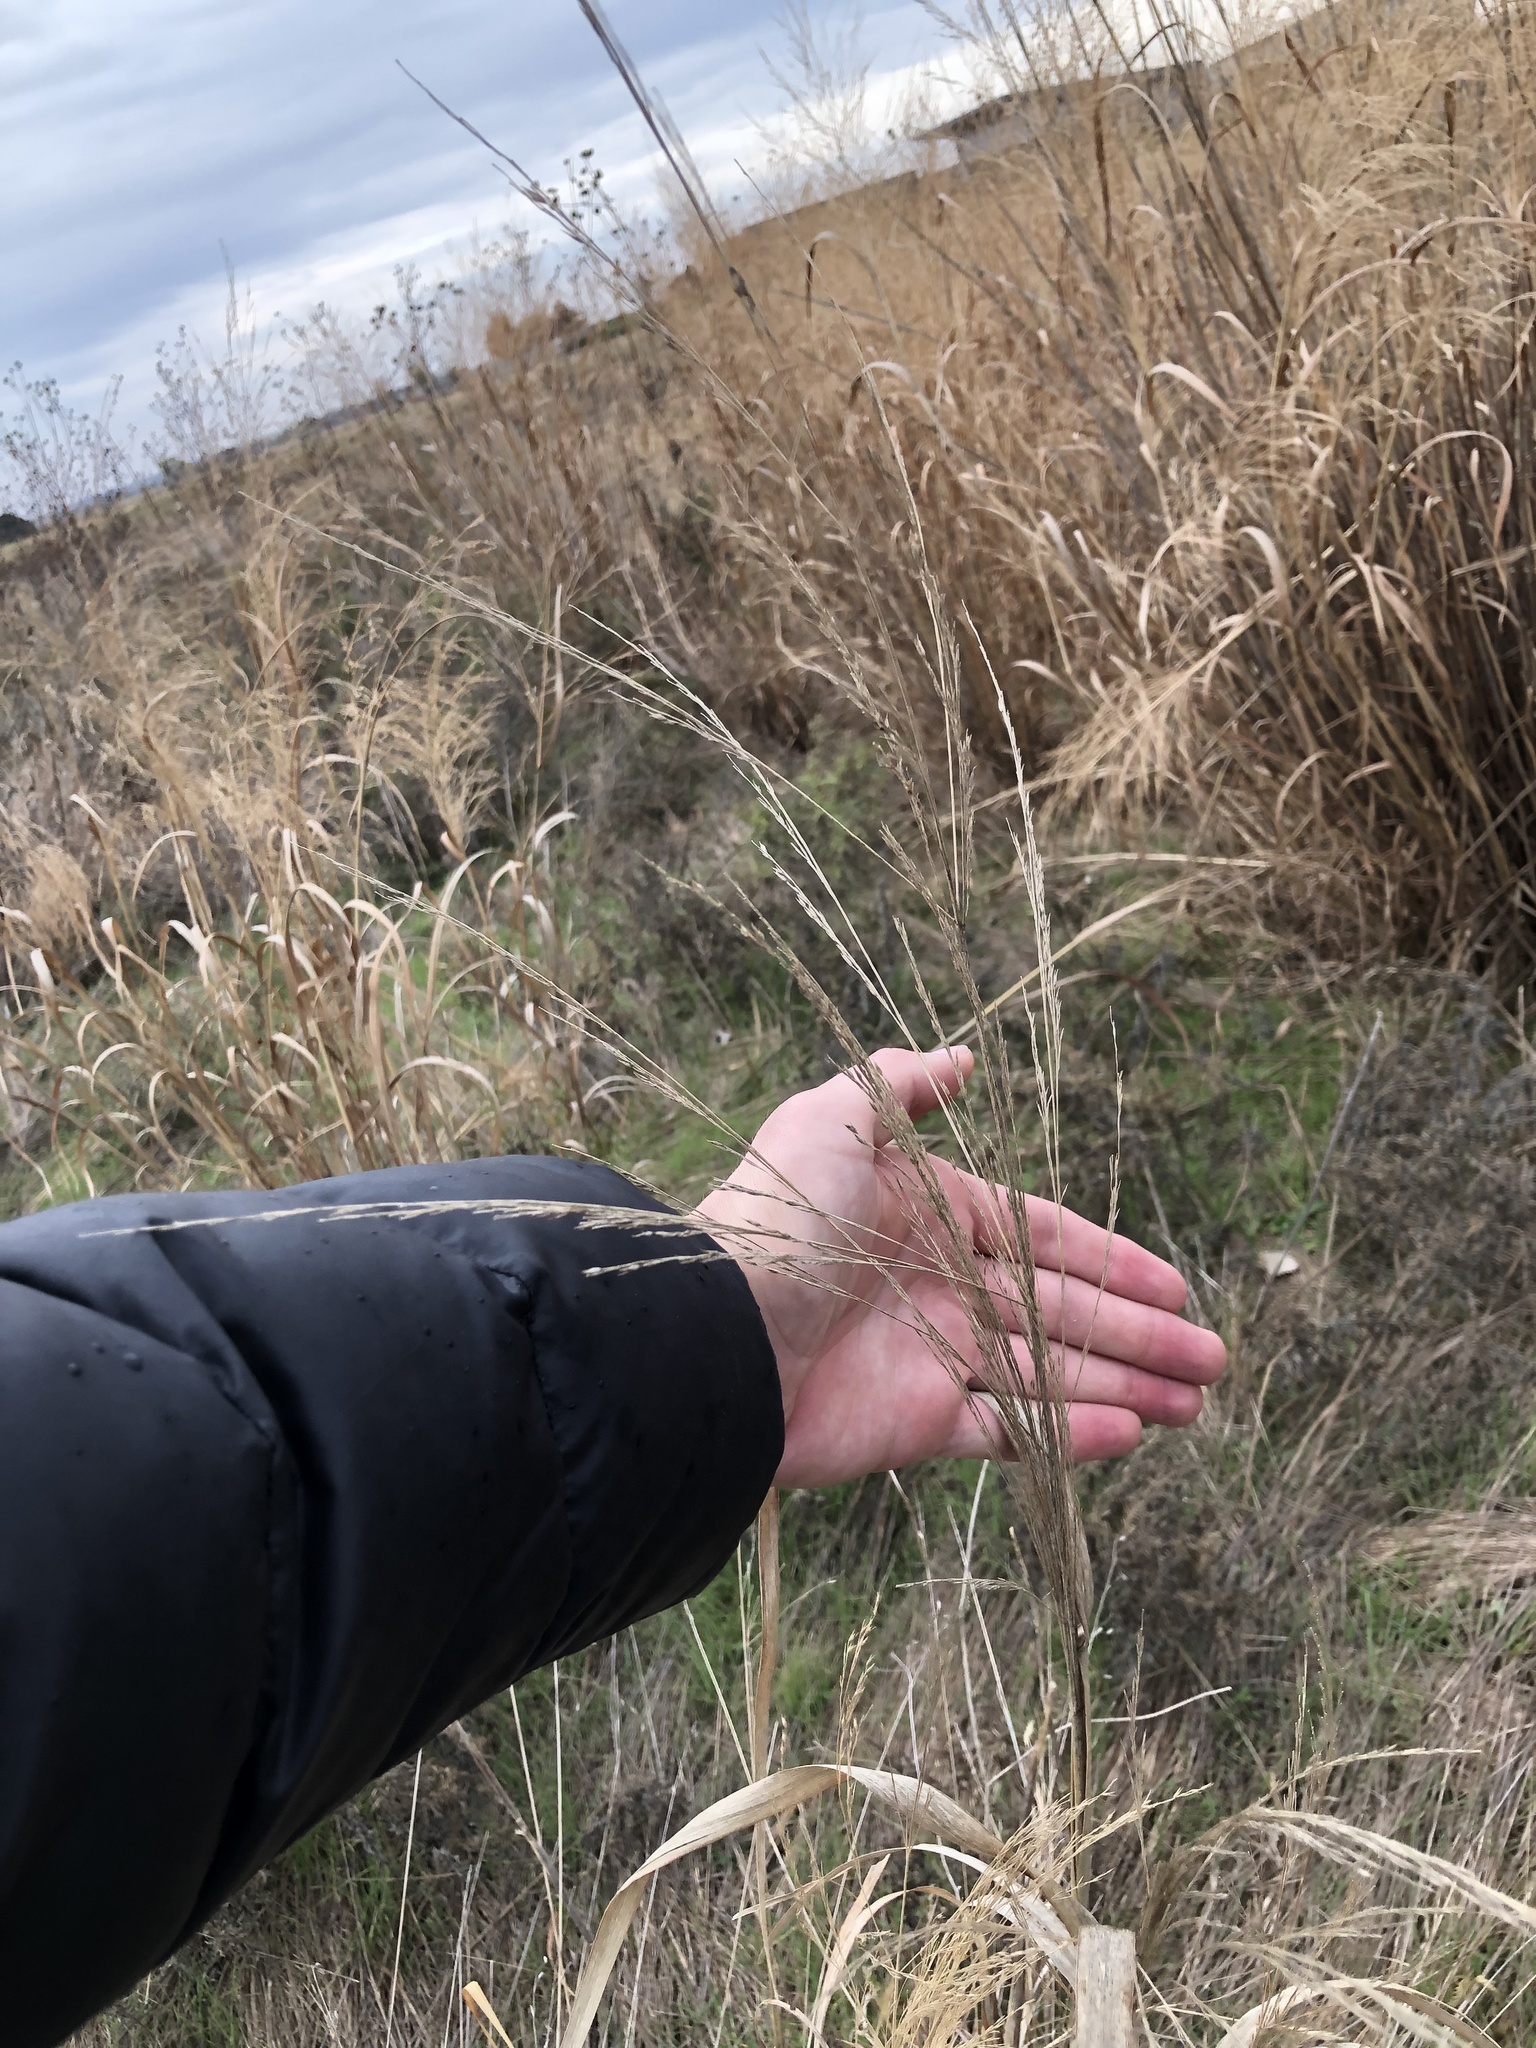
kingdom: Plantae
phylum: Tracheophyta
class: Liliopsida
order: Poales
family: Poaceae
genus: Panicum
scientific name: Panicum virgatum
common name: Switchgrass
